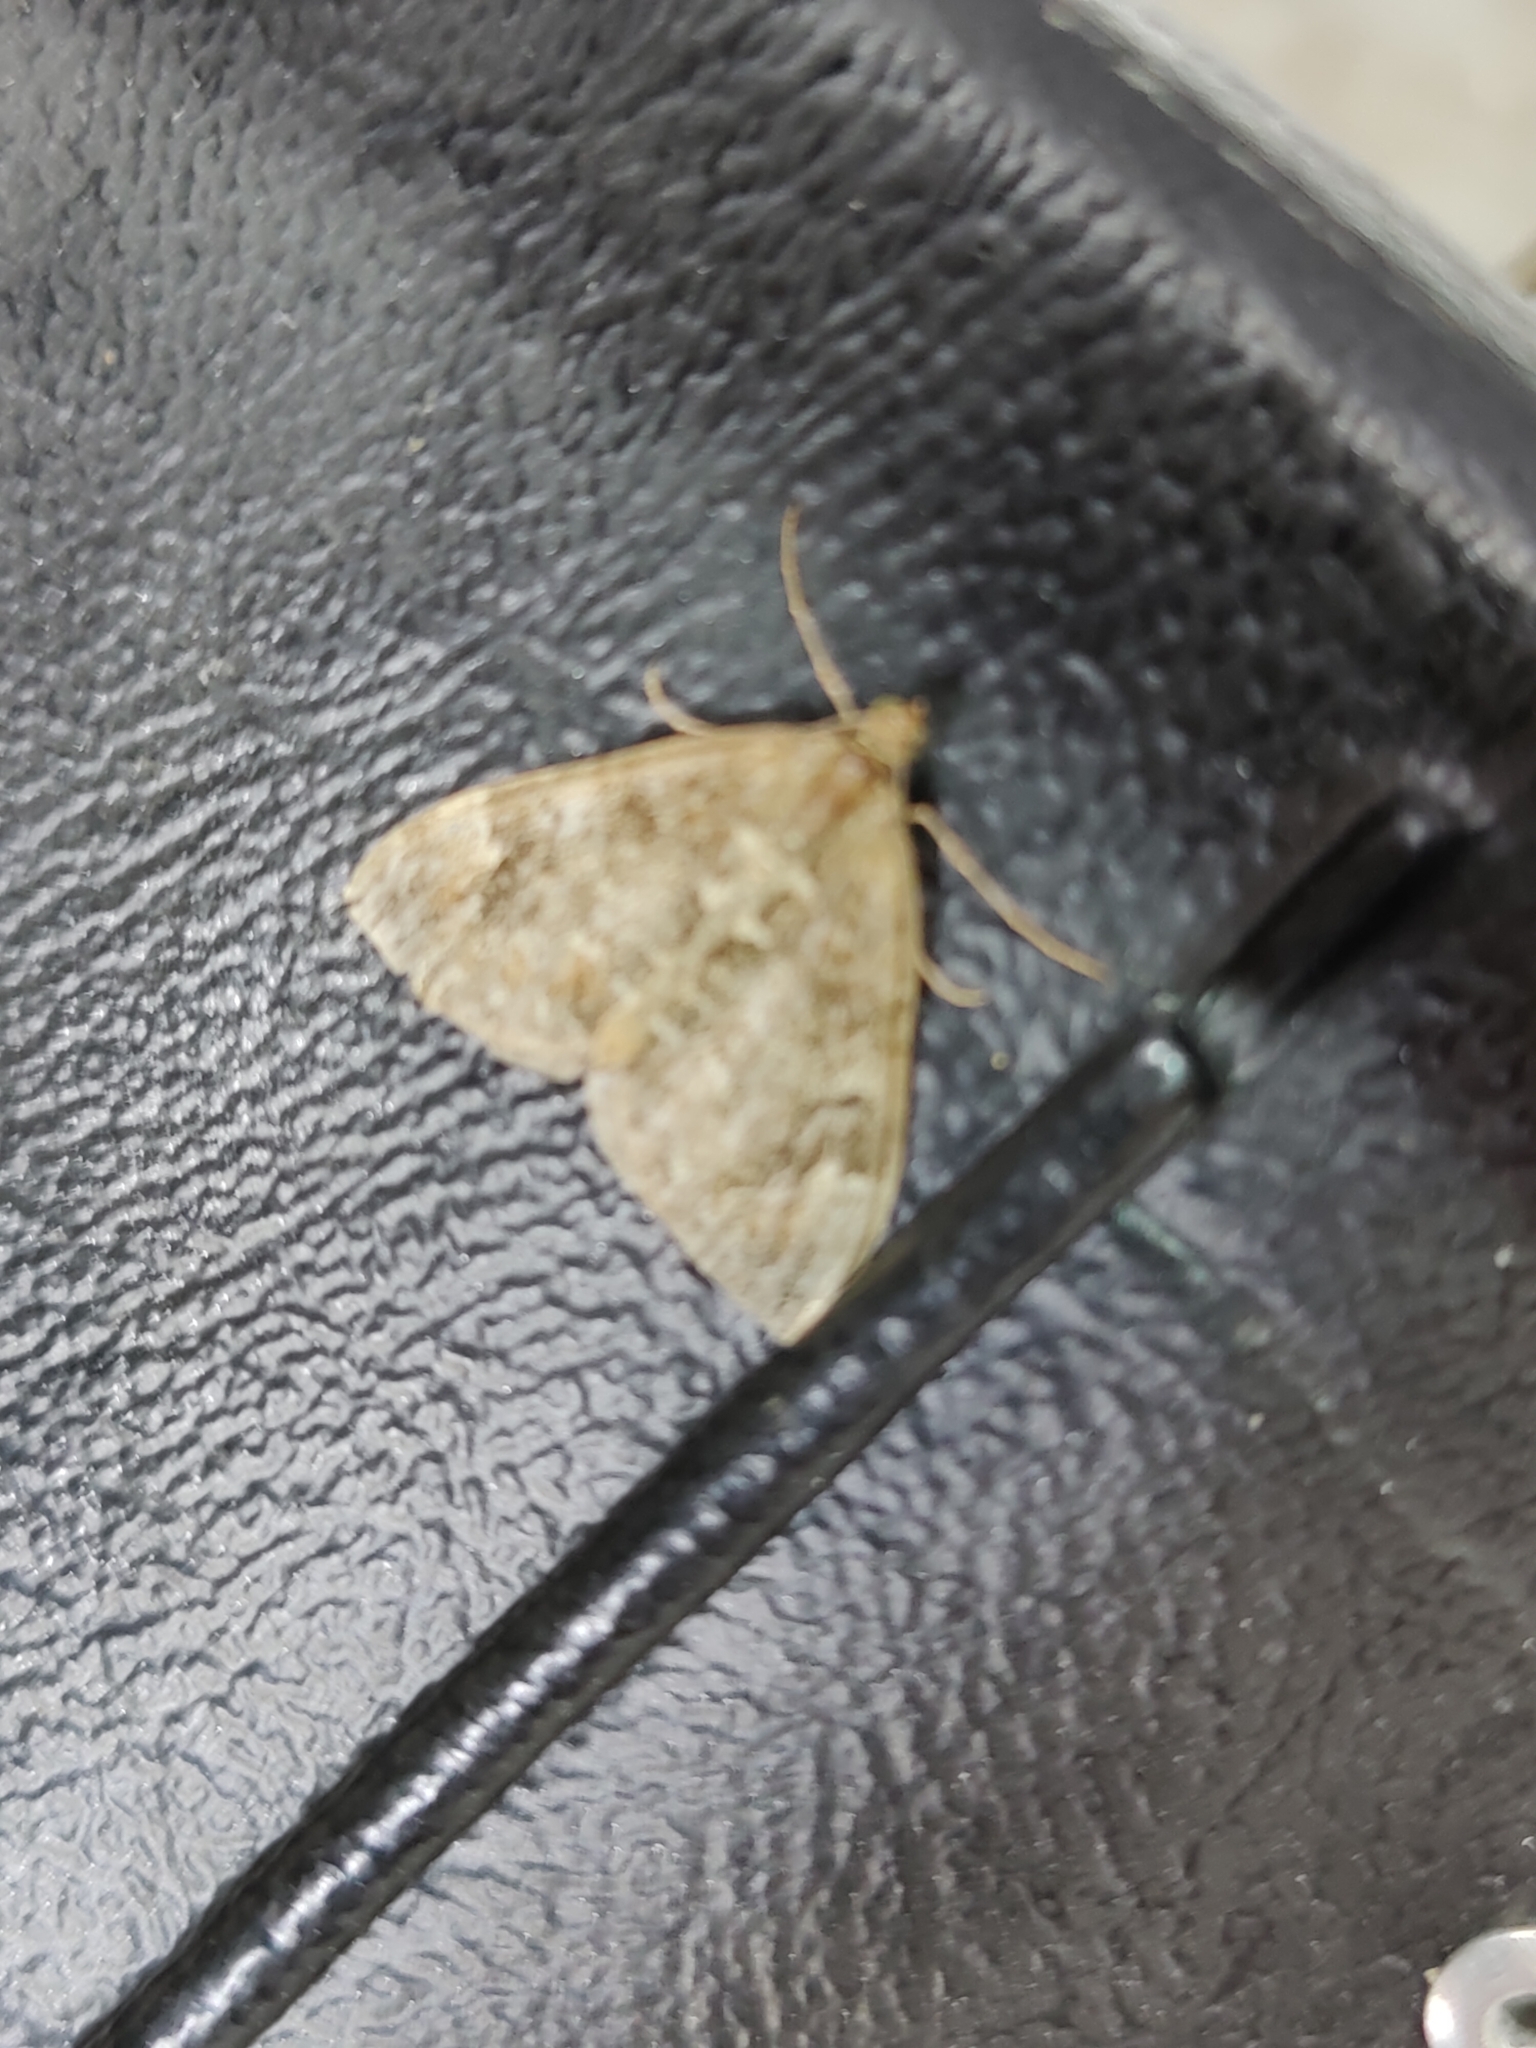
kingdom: Animalia
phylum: Arthropoda
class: Insecta
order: Lepidoptera
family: Geometridae
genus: Dysstroma
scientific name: Dysstroma truncata
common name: Common marbled carpet
